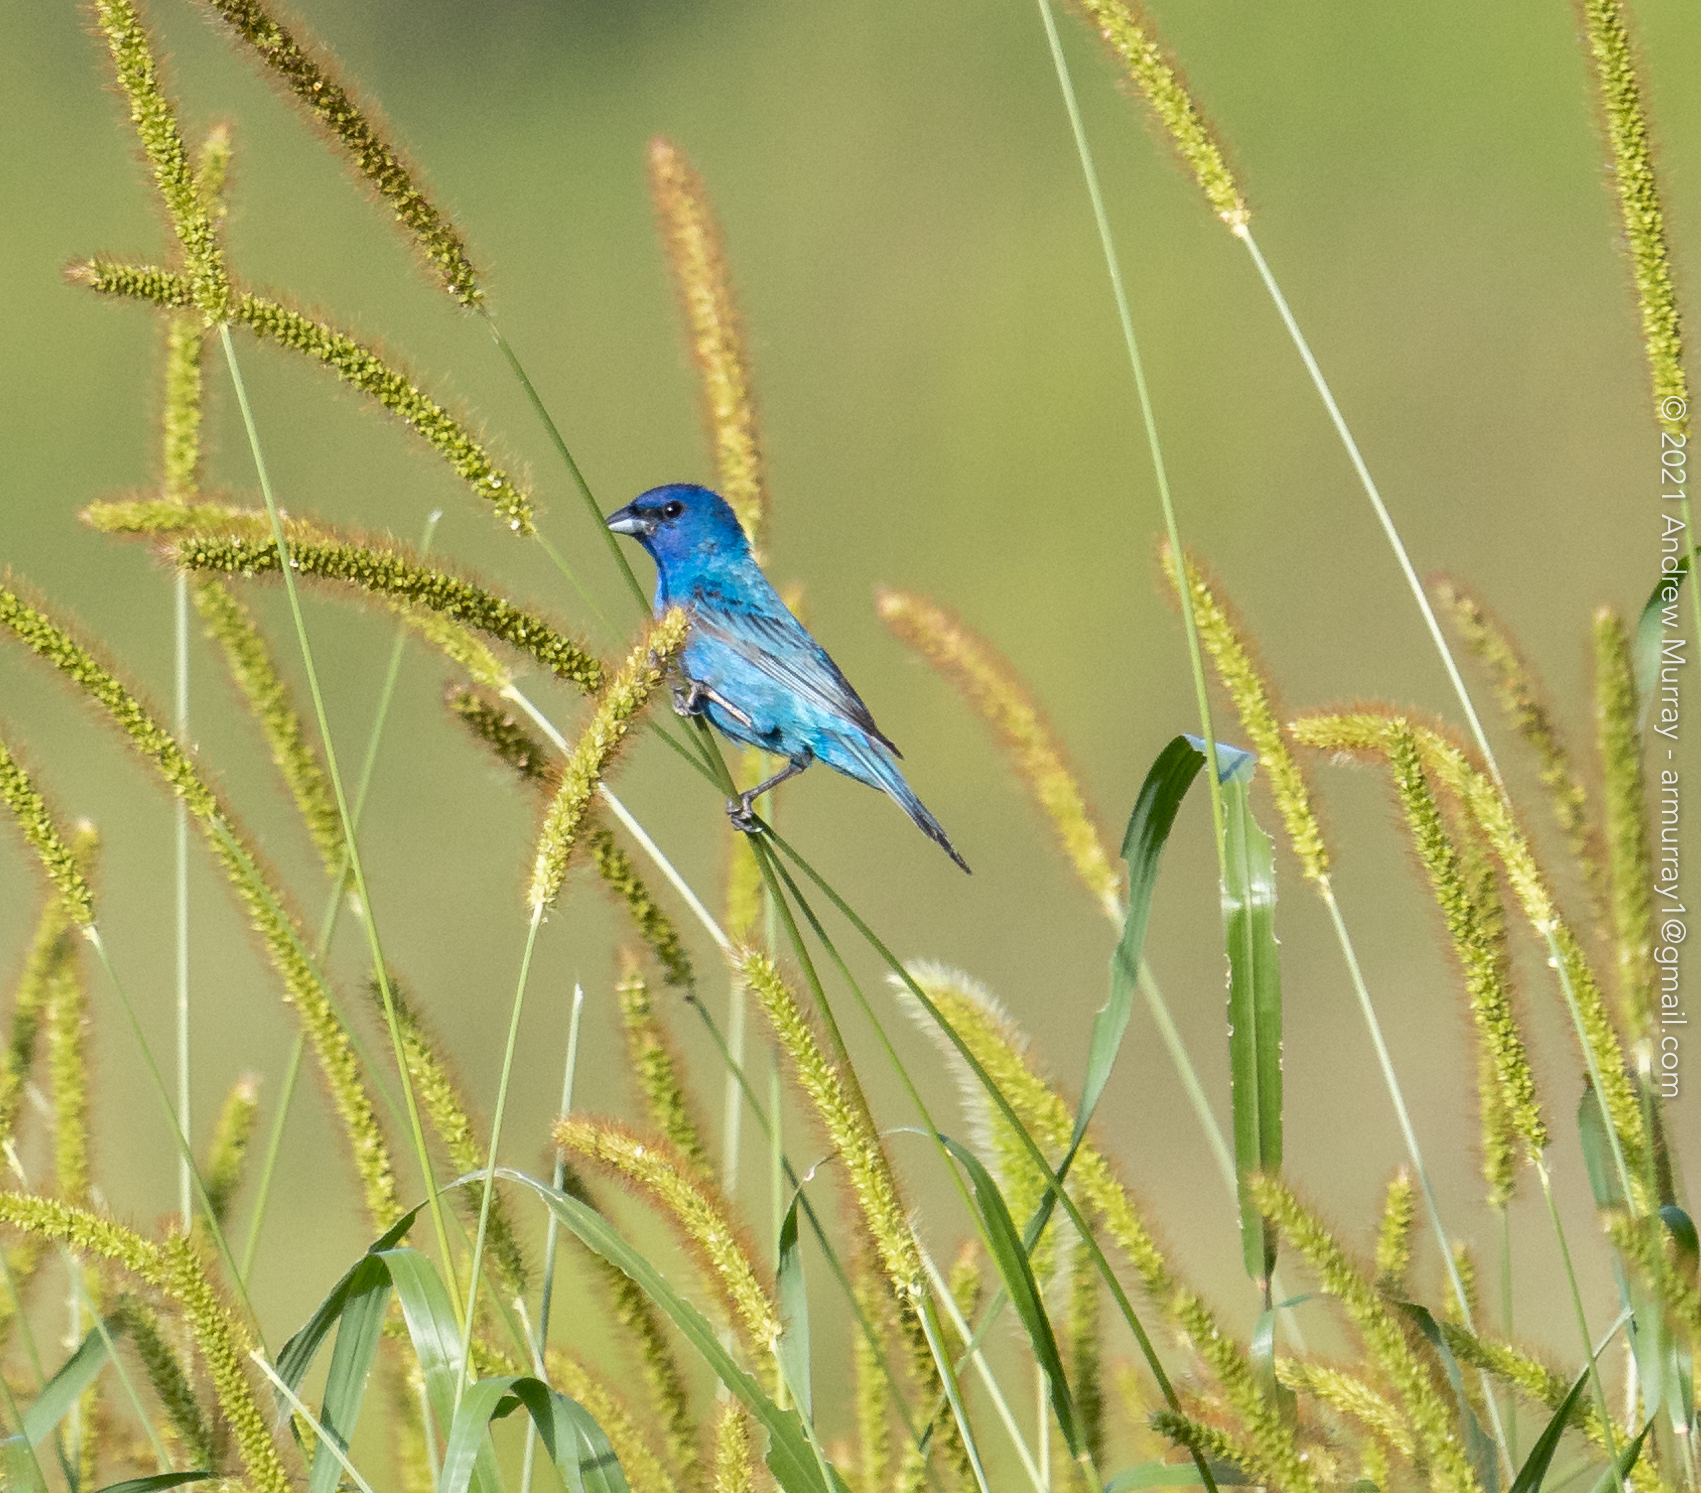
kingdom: Animalia
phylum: Chordata
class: Aves
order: Passeriformes
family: Cardinalidae
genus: Passerina
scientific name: Passerina cyanea
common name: Indigo bunting
